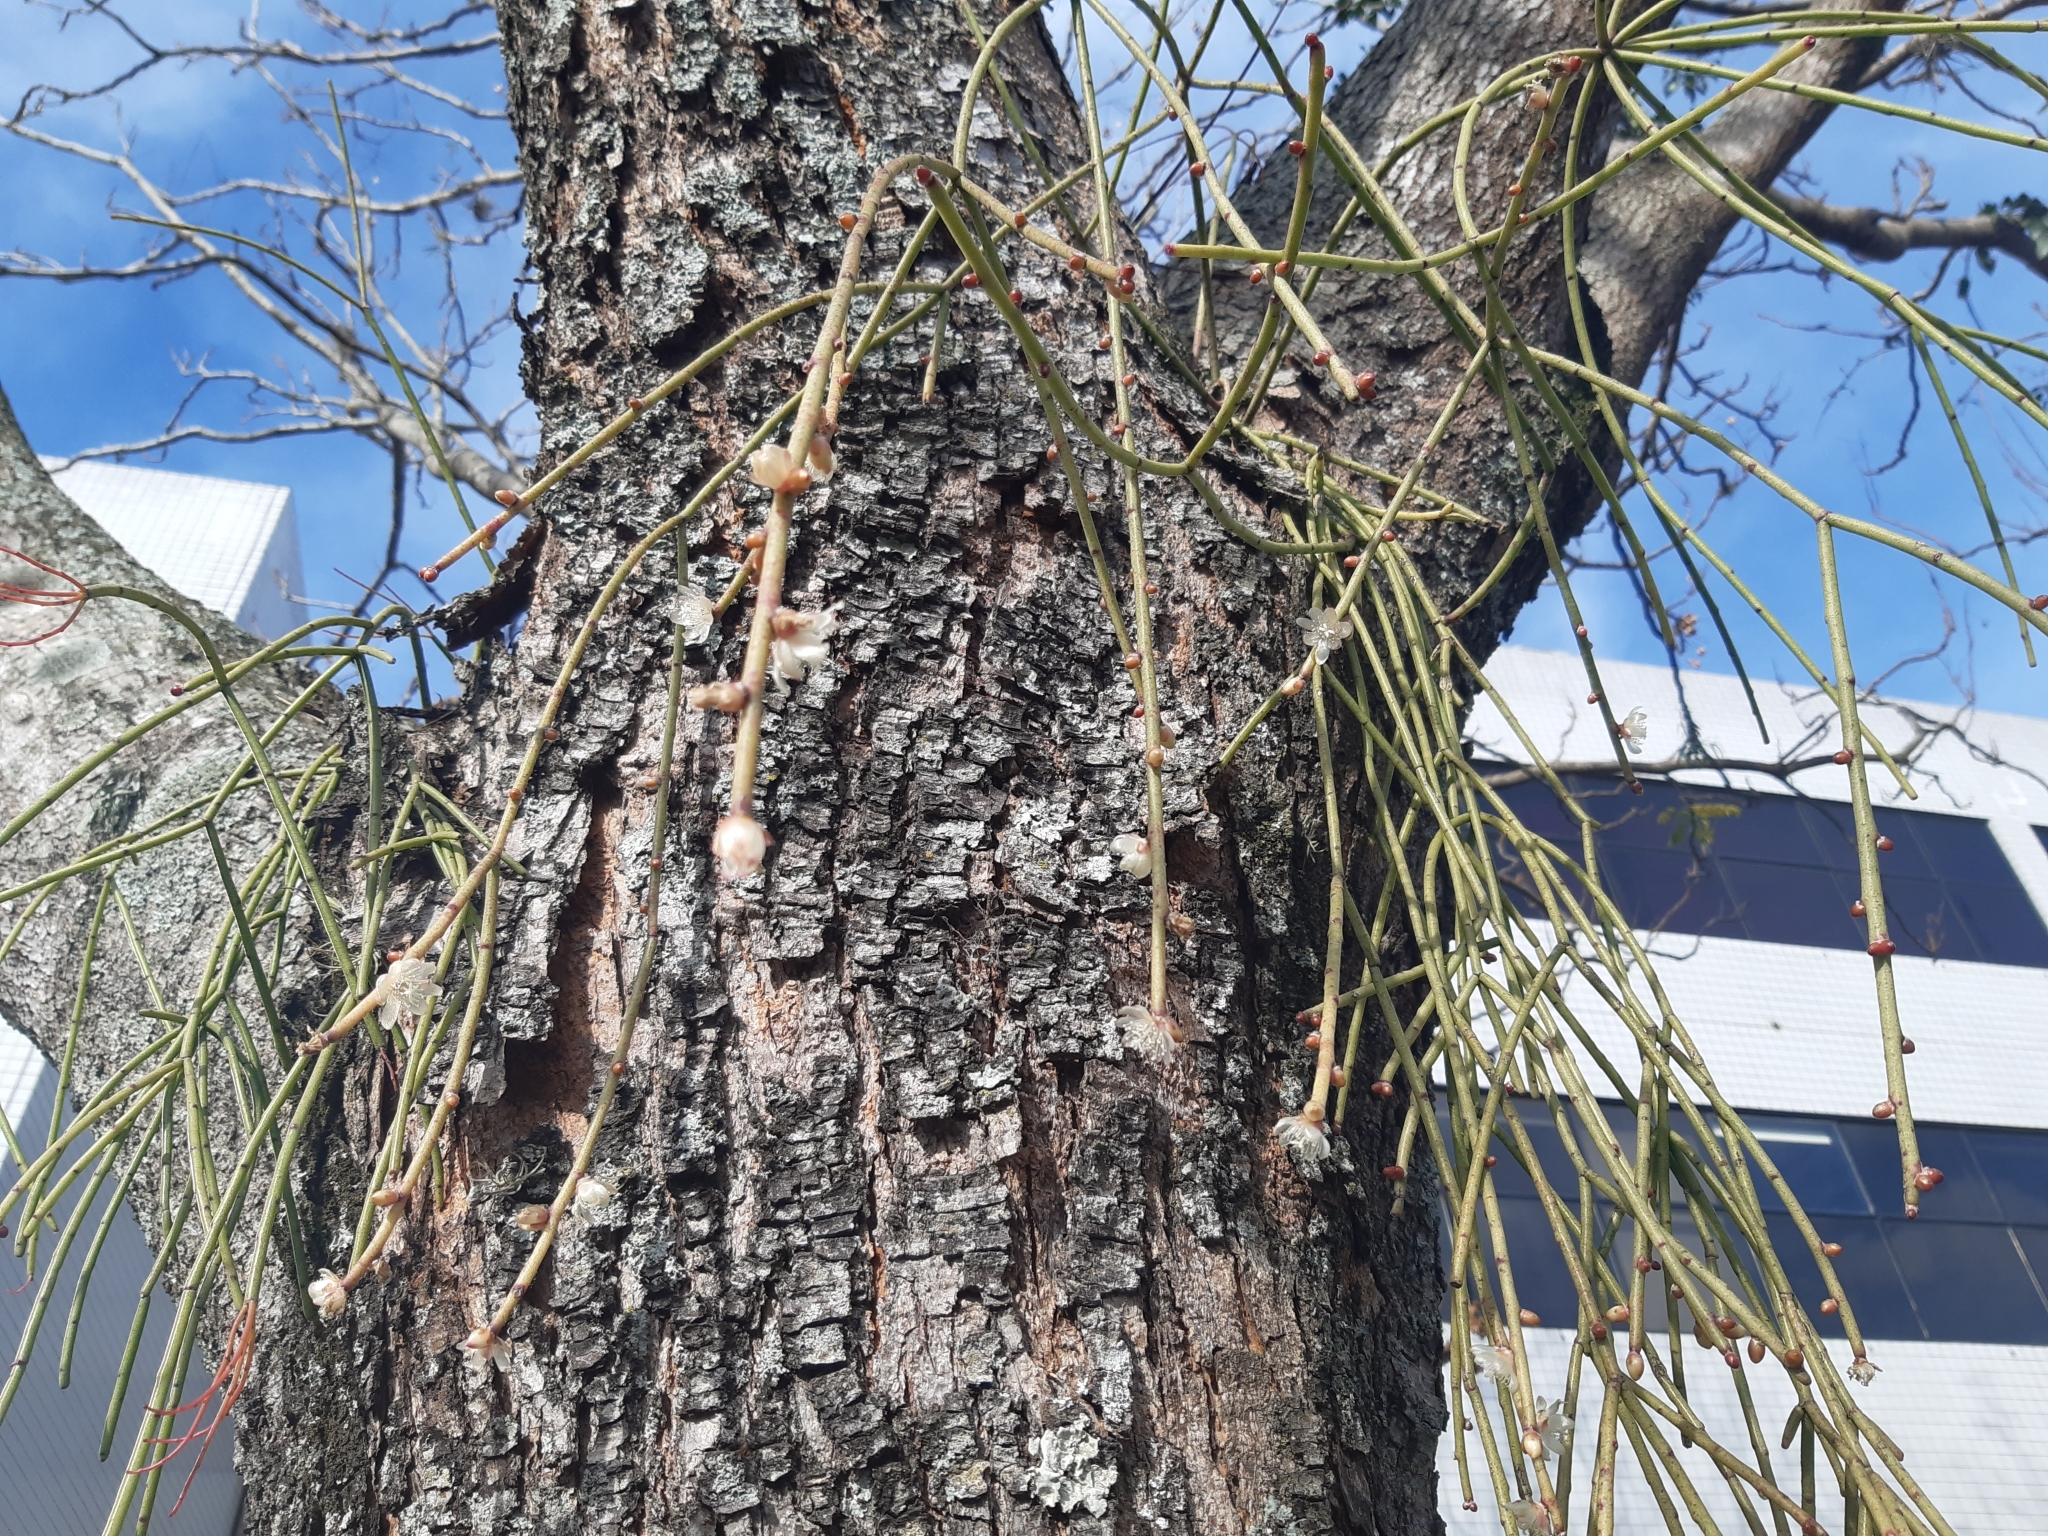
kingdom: Plantae
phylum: Tracheophyta
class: Magnoliopsida
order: Caryophyllales
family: Cactaceae
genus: Rhipsalis
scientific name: Rhipsalis floccosa
